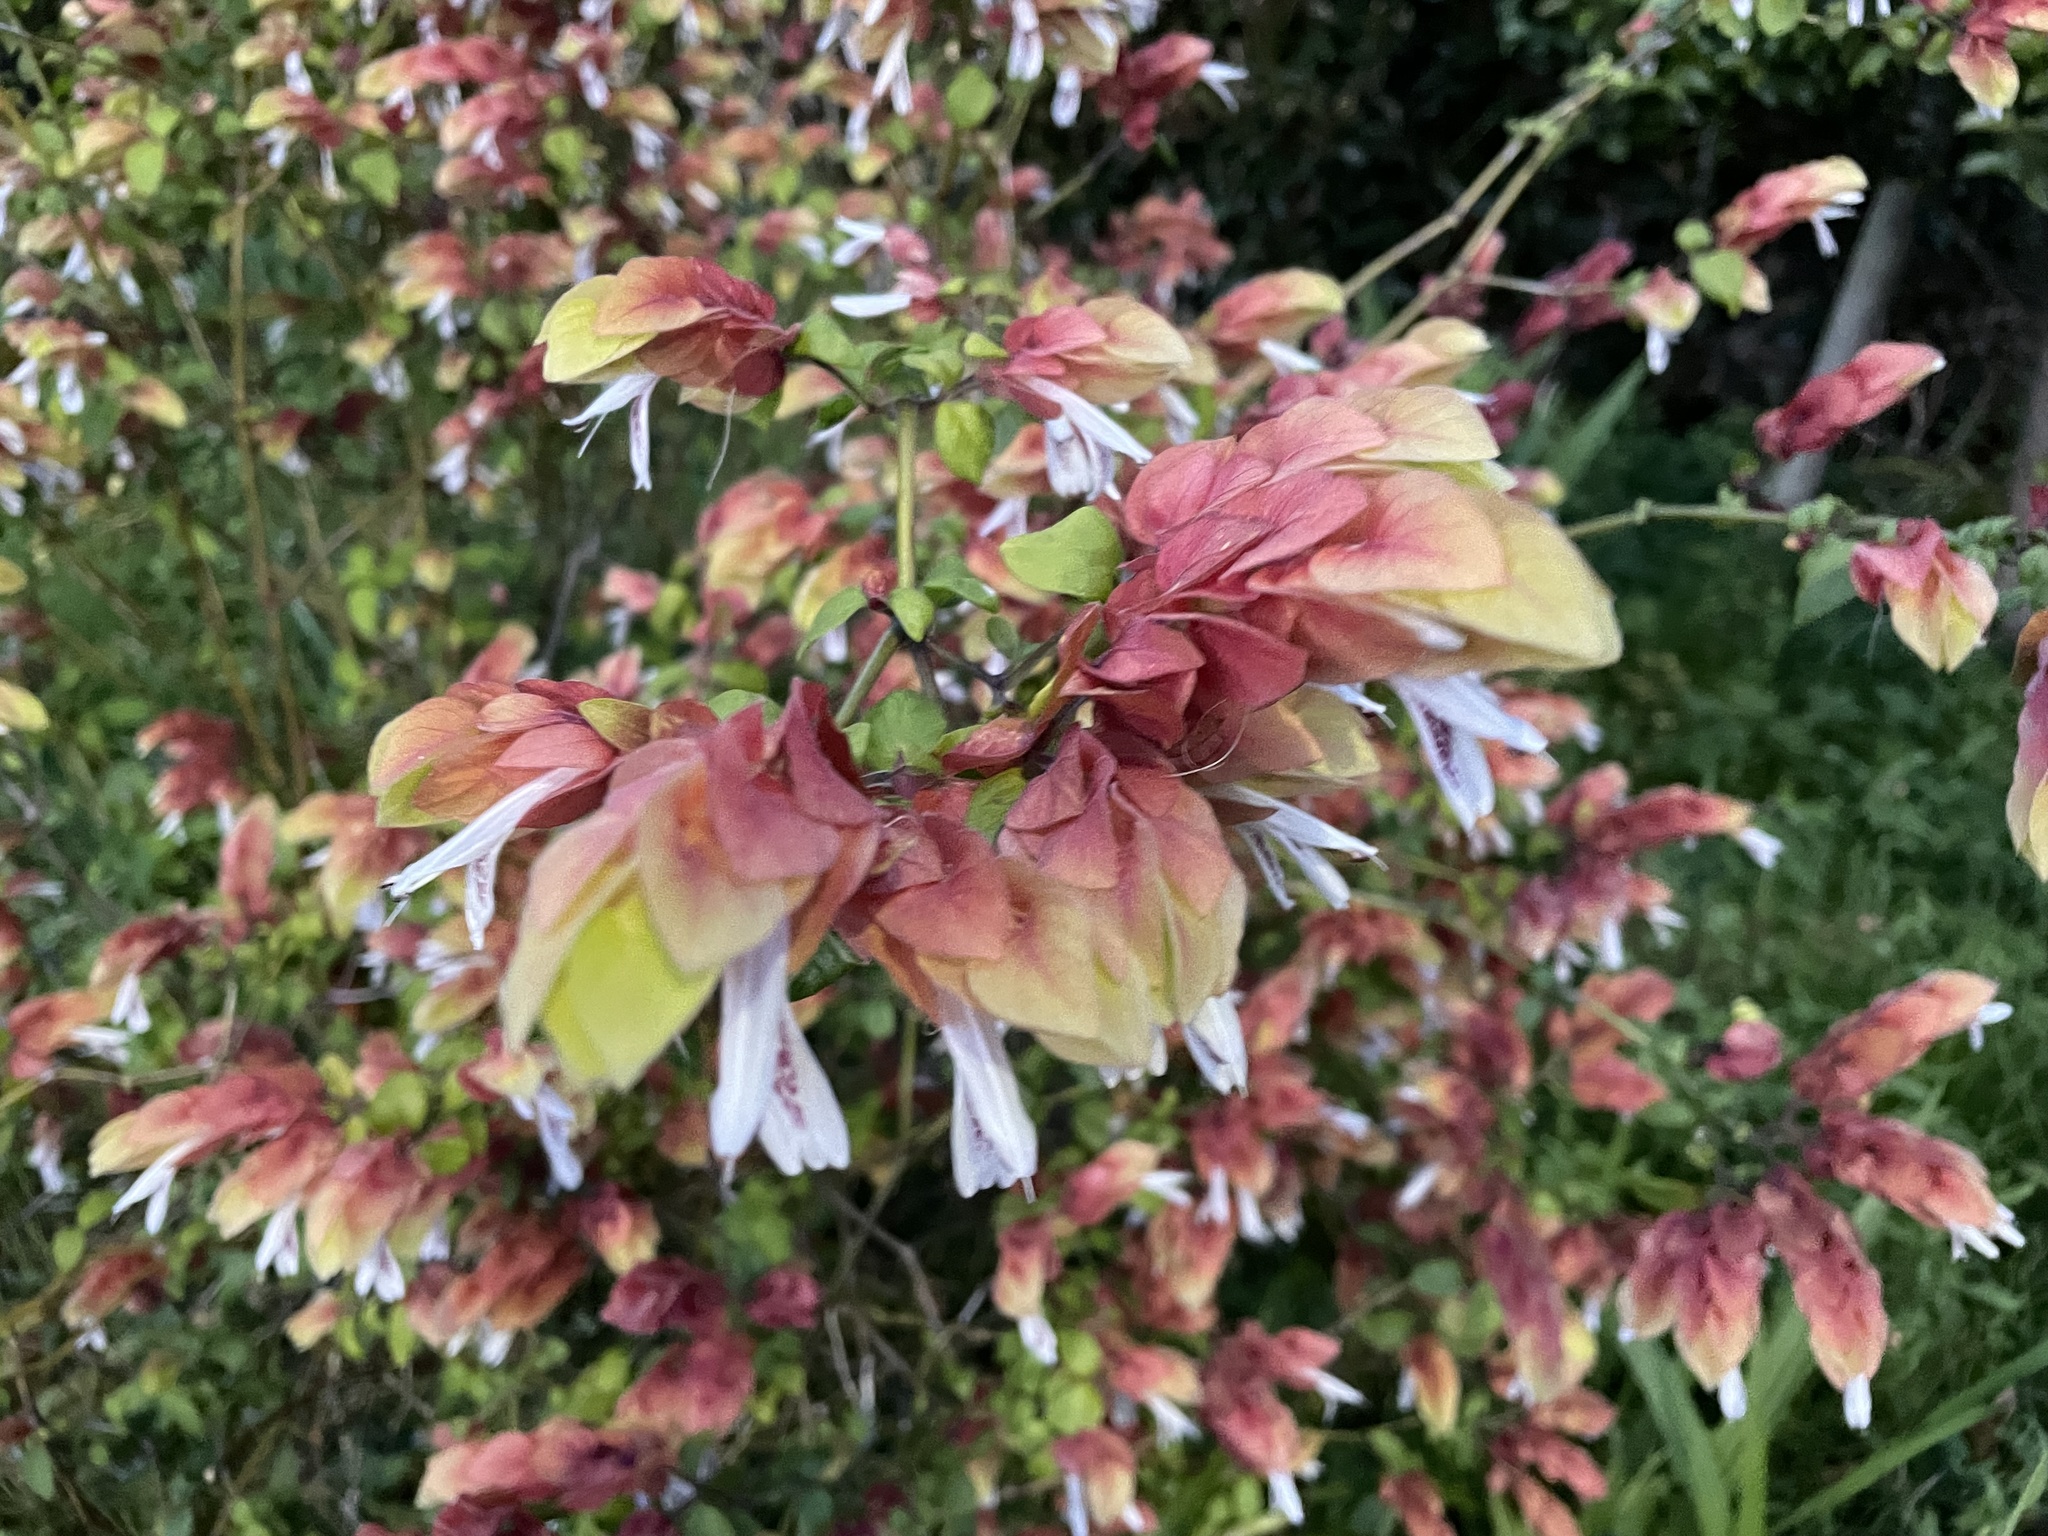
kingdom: Plantae
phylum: Tracheophyta
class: Magnoliopsida
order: Lamiales
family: Acanthaceae
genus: Justicia
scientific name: Justicia brandegeeana
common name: Shrimpplant
